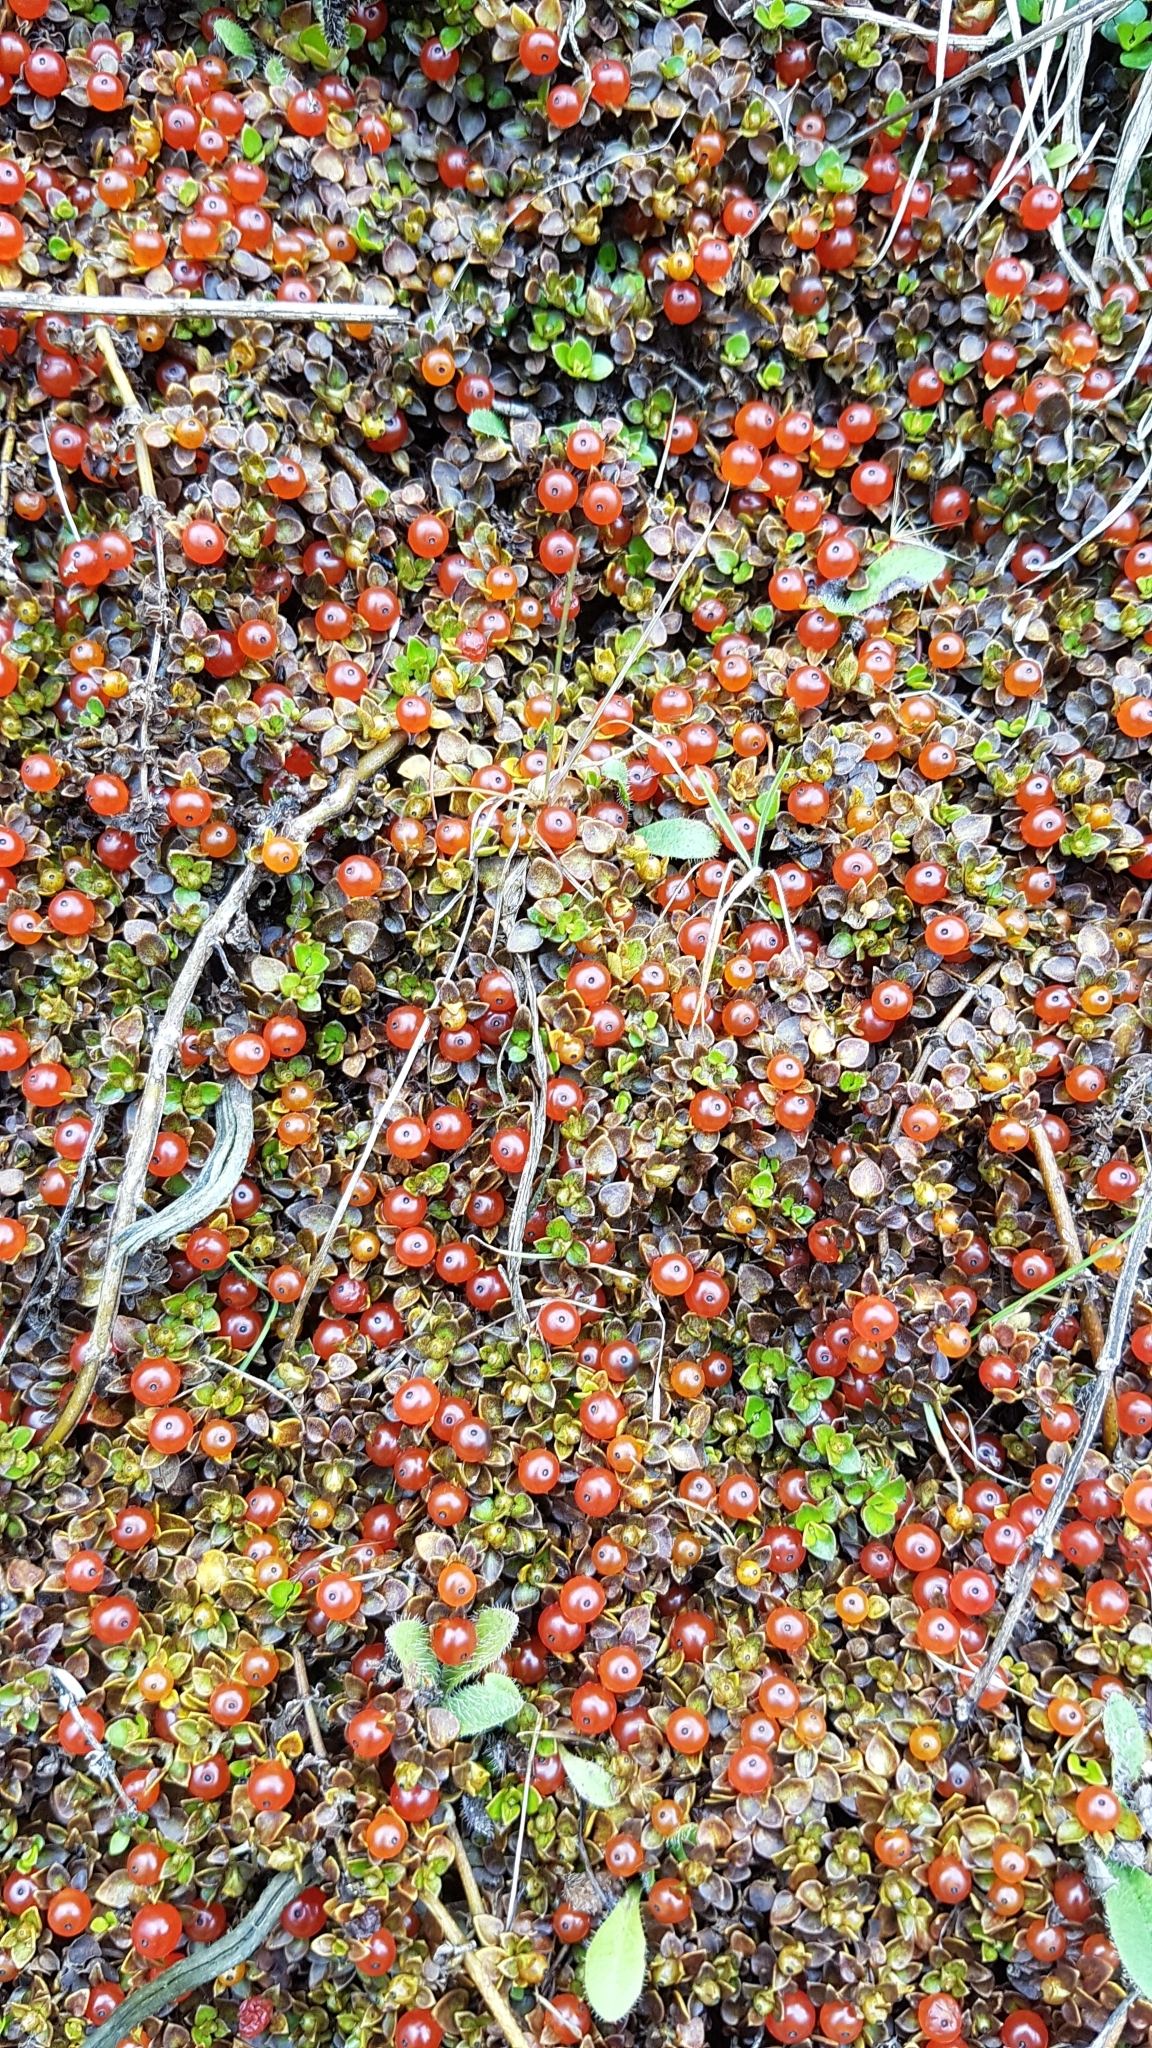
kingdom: Plantae
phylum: Tracheophyta
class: Magnoliopsida
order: Gentianales
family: Rubiaceae
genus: Nertera
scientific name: Nertera granadensis
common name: Beadplant
